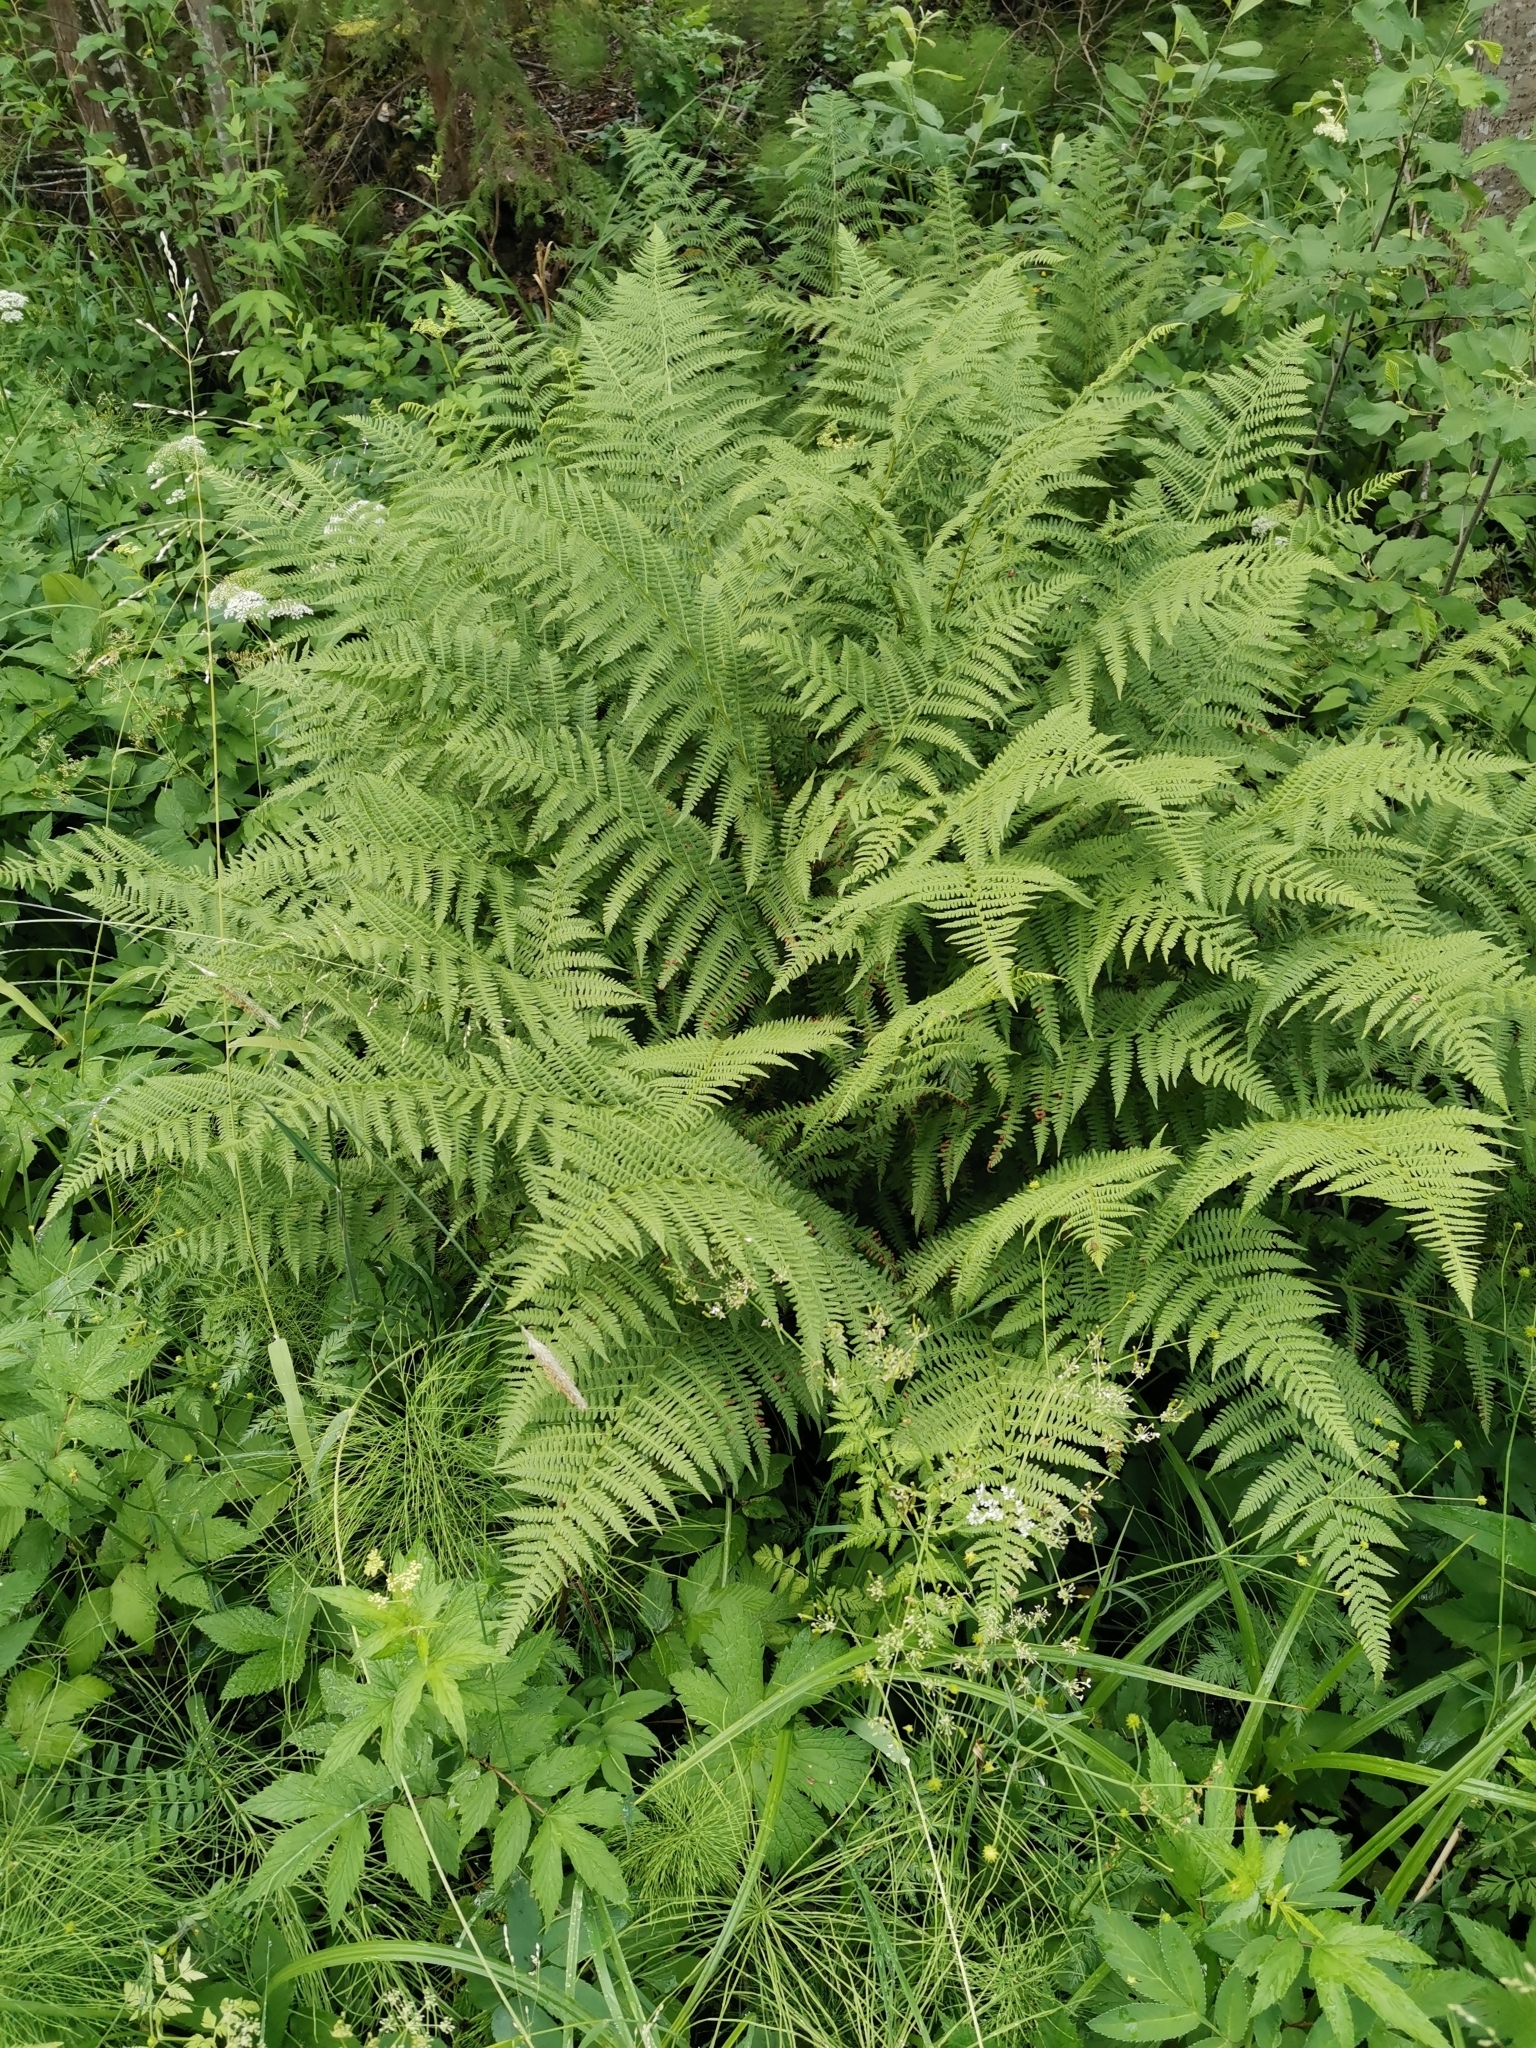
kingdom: Plantae
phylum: Tracheophyta
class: Polypodiopsida
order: Polypodiales
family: Athyriaceae
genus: Athyrium
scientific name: Athyrium filix-femina
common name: Lady fern
